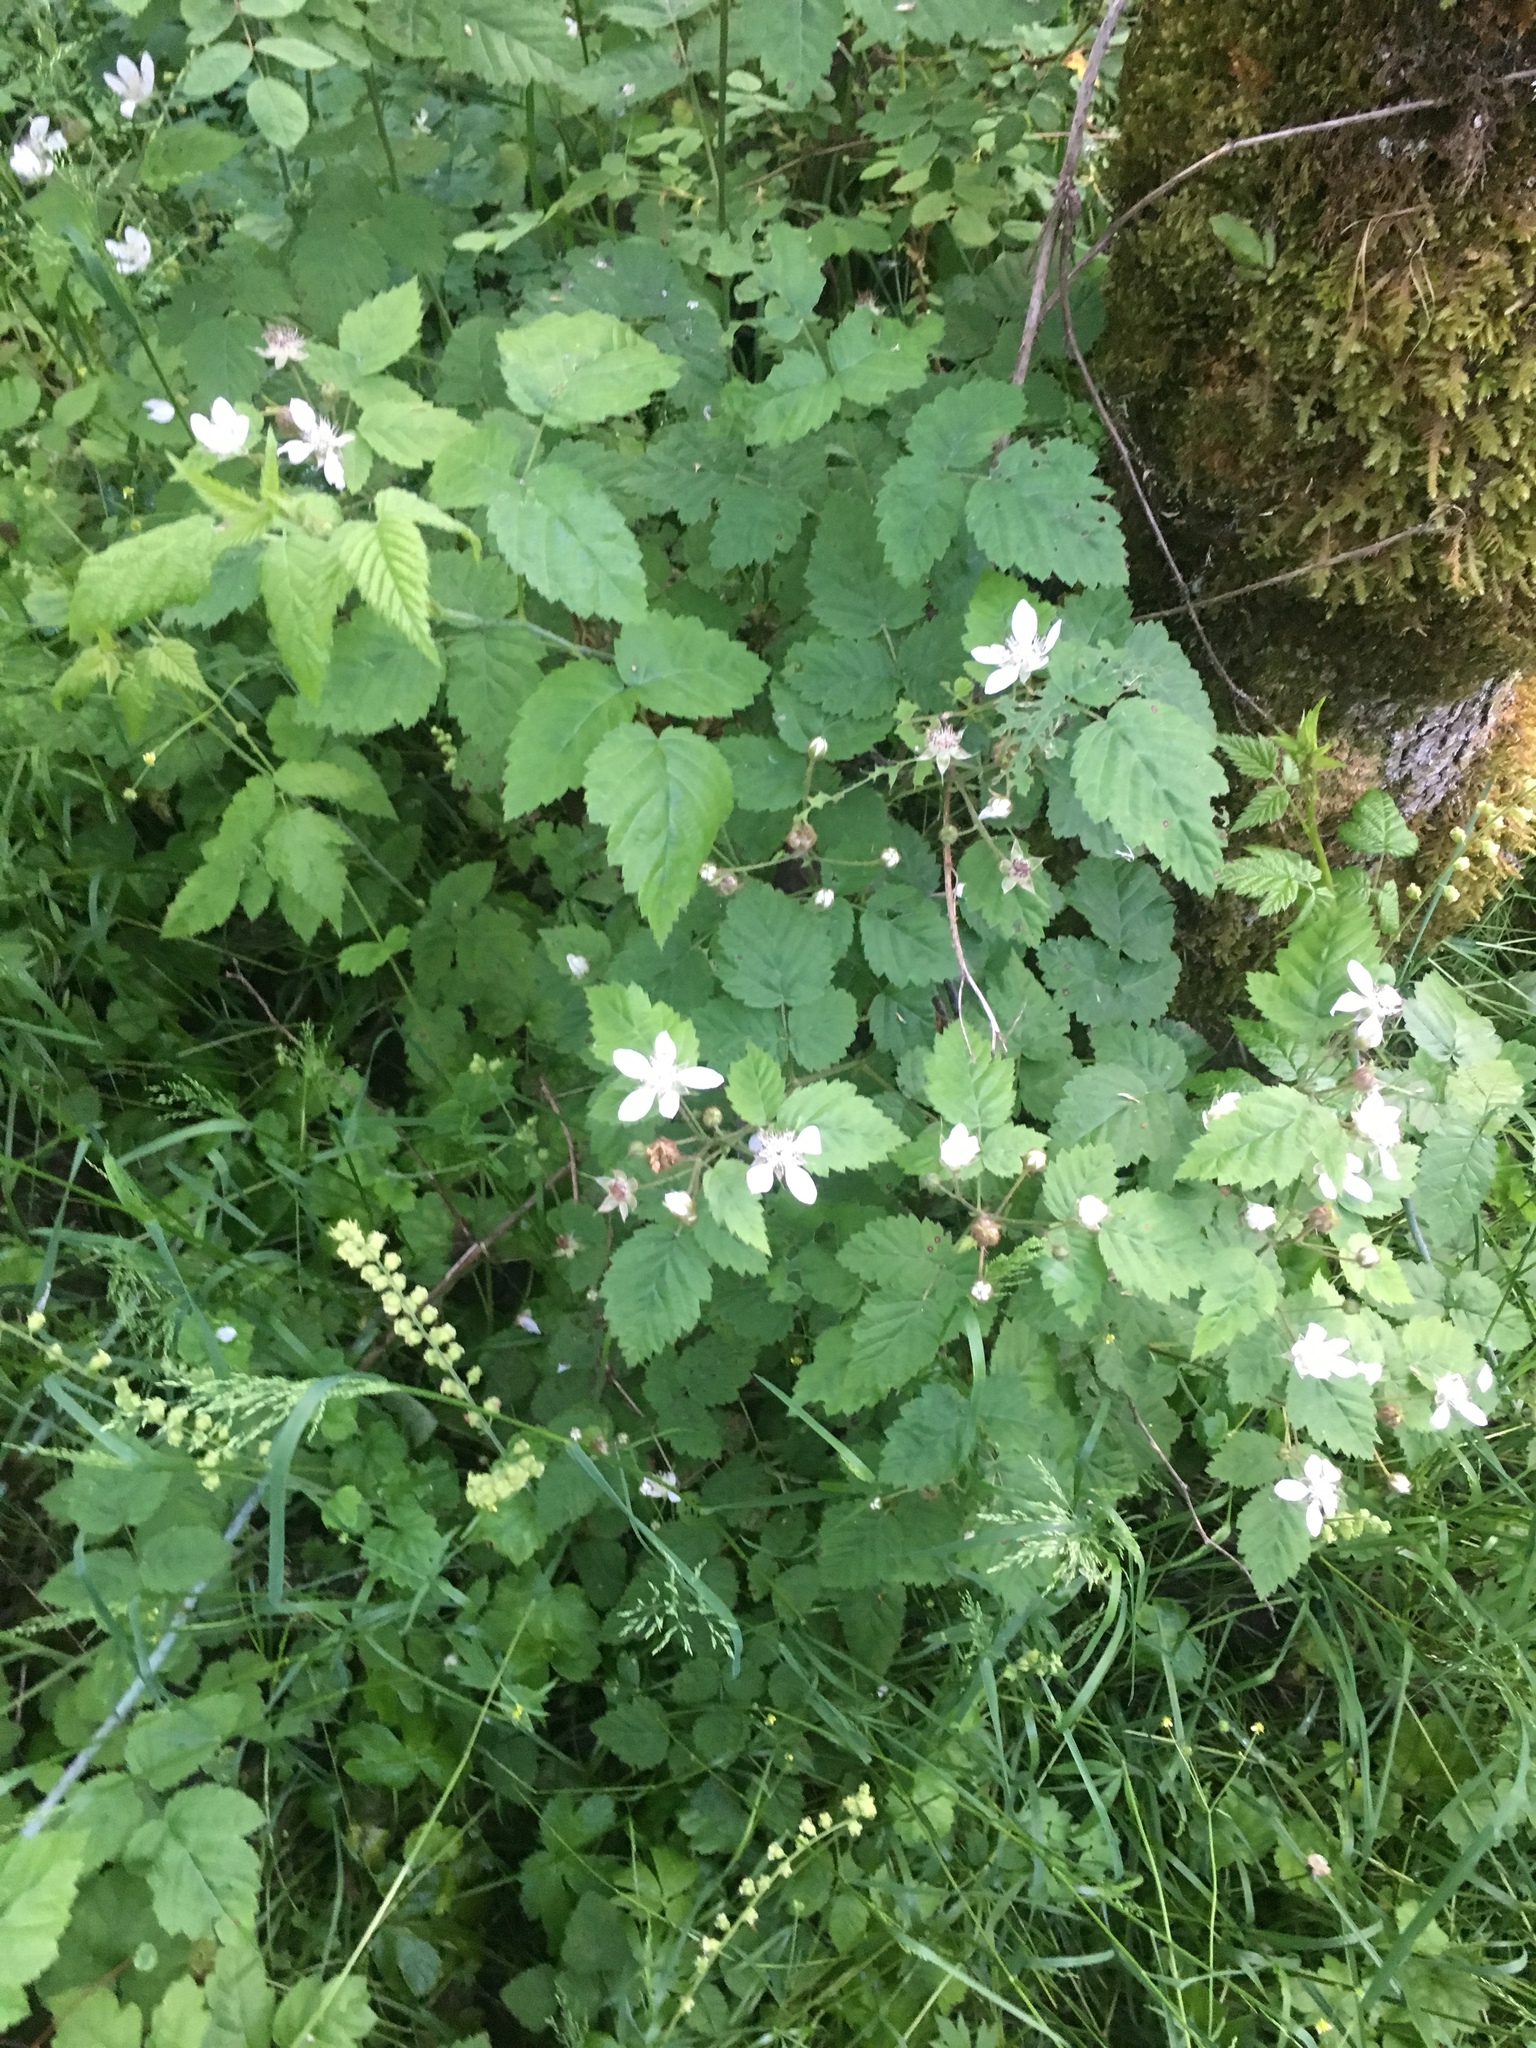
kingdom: Plantae
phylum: Tracheophyta
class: Magnoliopsida
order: Rosales
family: Rosaceae
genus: Rubus
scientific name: Rubus ursinus
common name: Pacific blackberry
